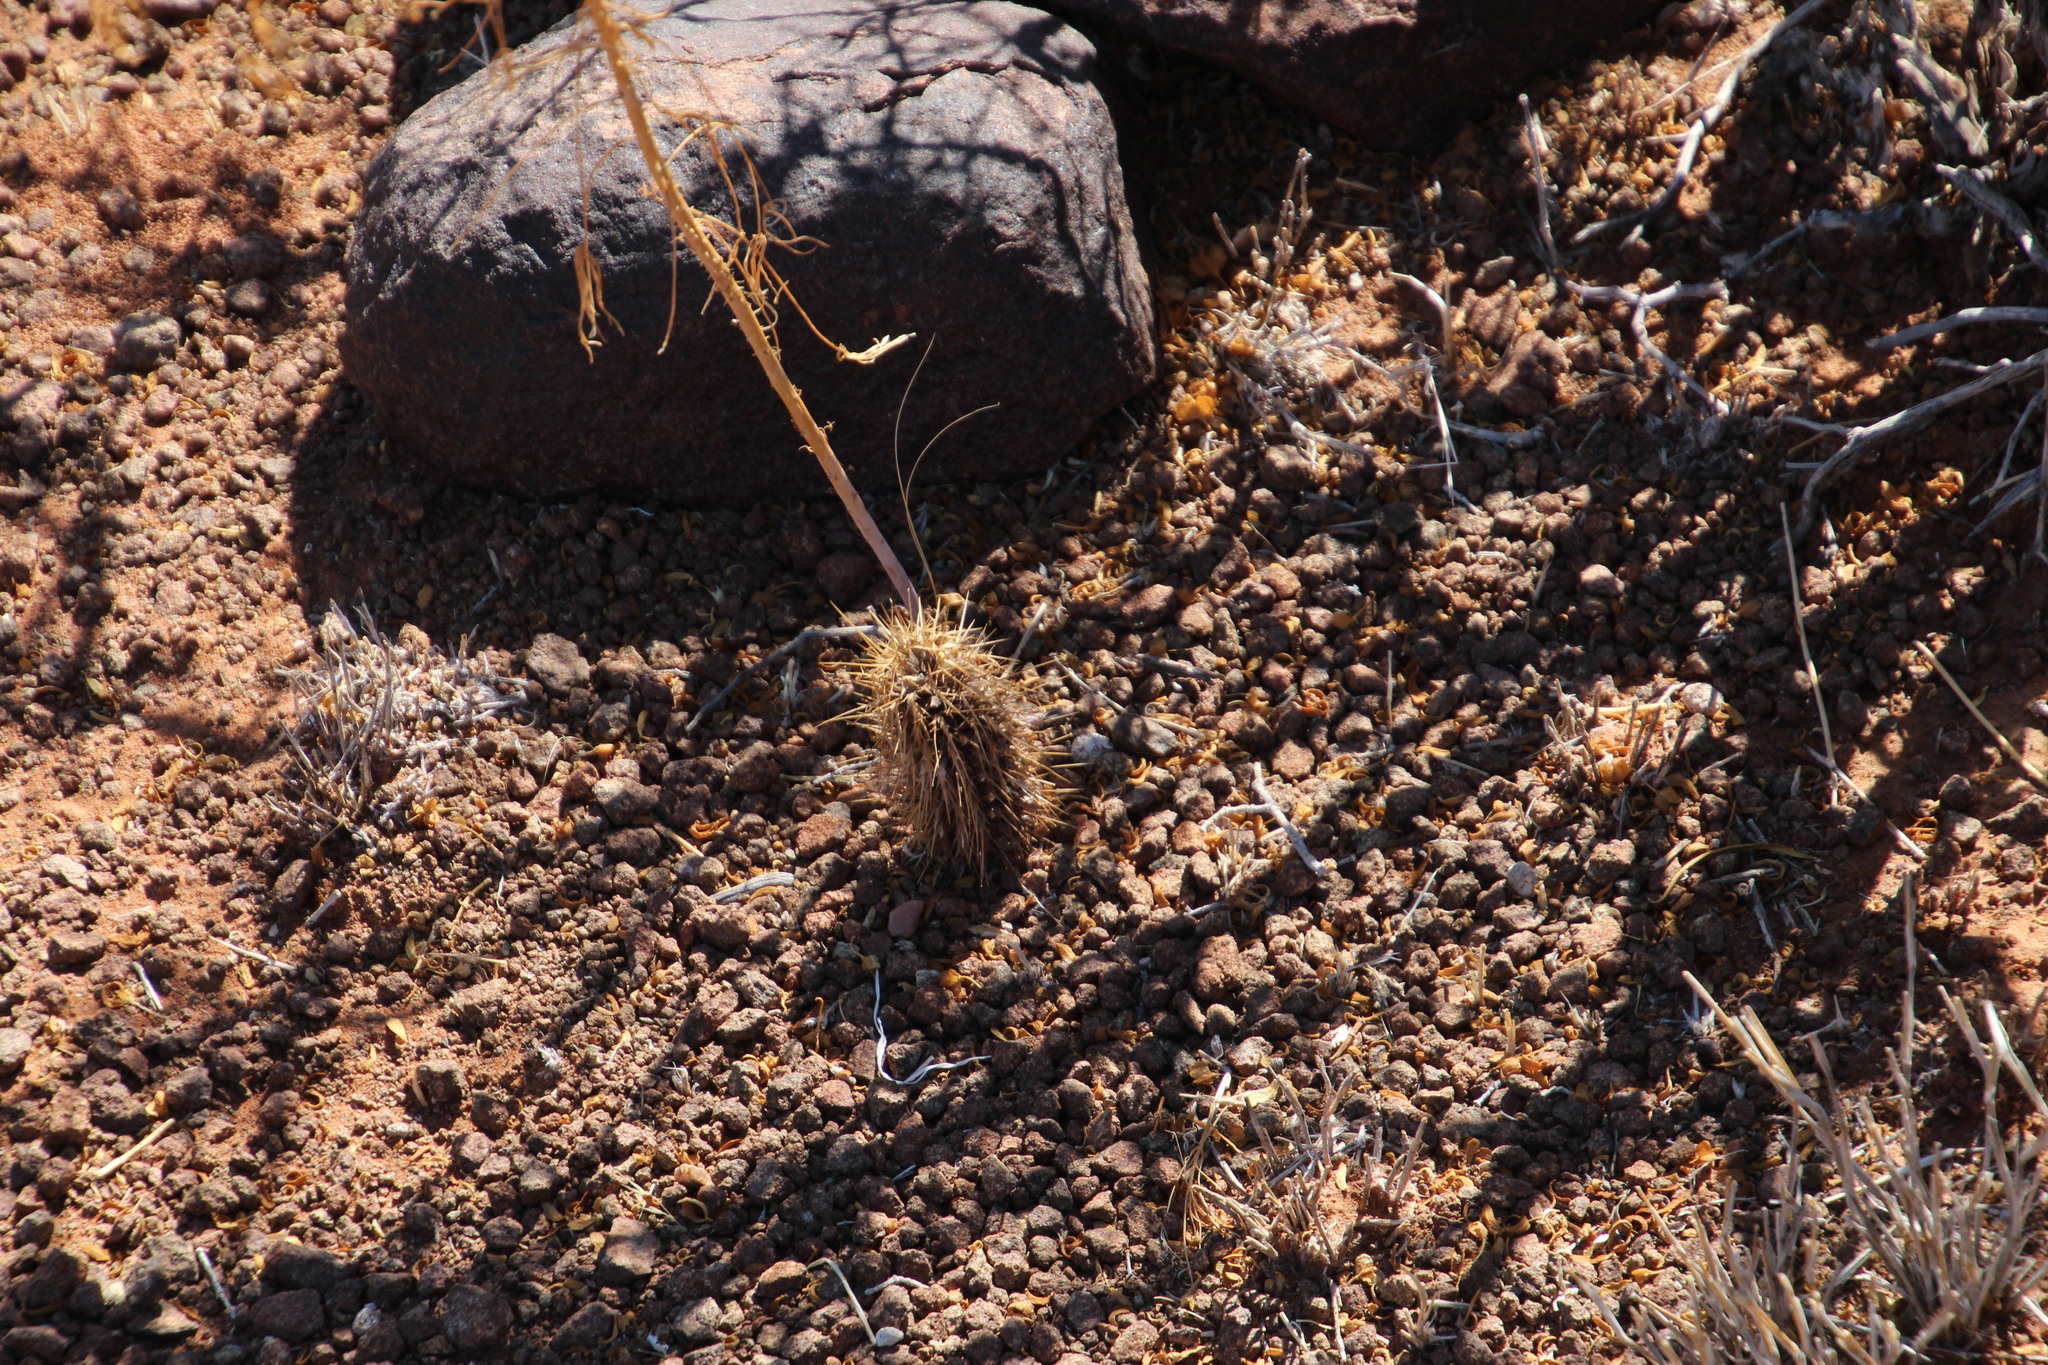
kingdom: Plantae
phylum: Tracheophyta
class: Magnoliopsida
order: Lamiales
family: Acanthaceae
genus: Acanthopsis
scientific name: Acanthopsis hoffmannseggiana
